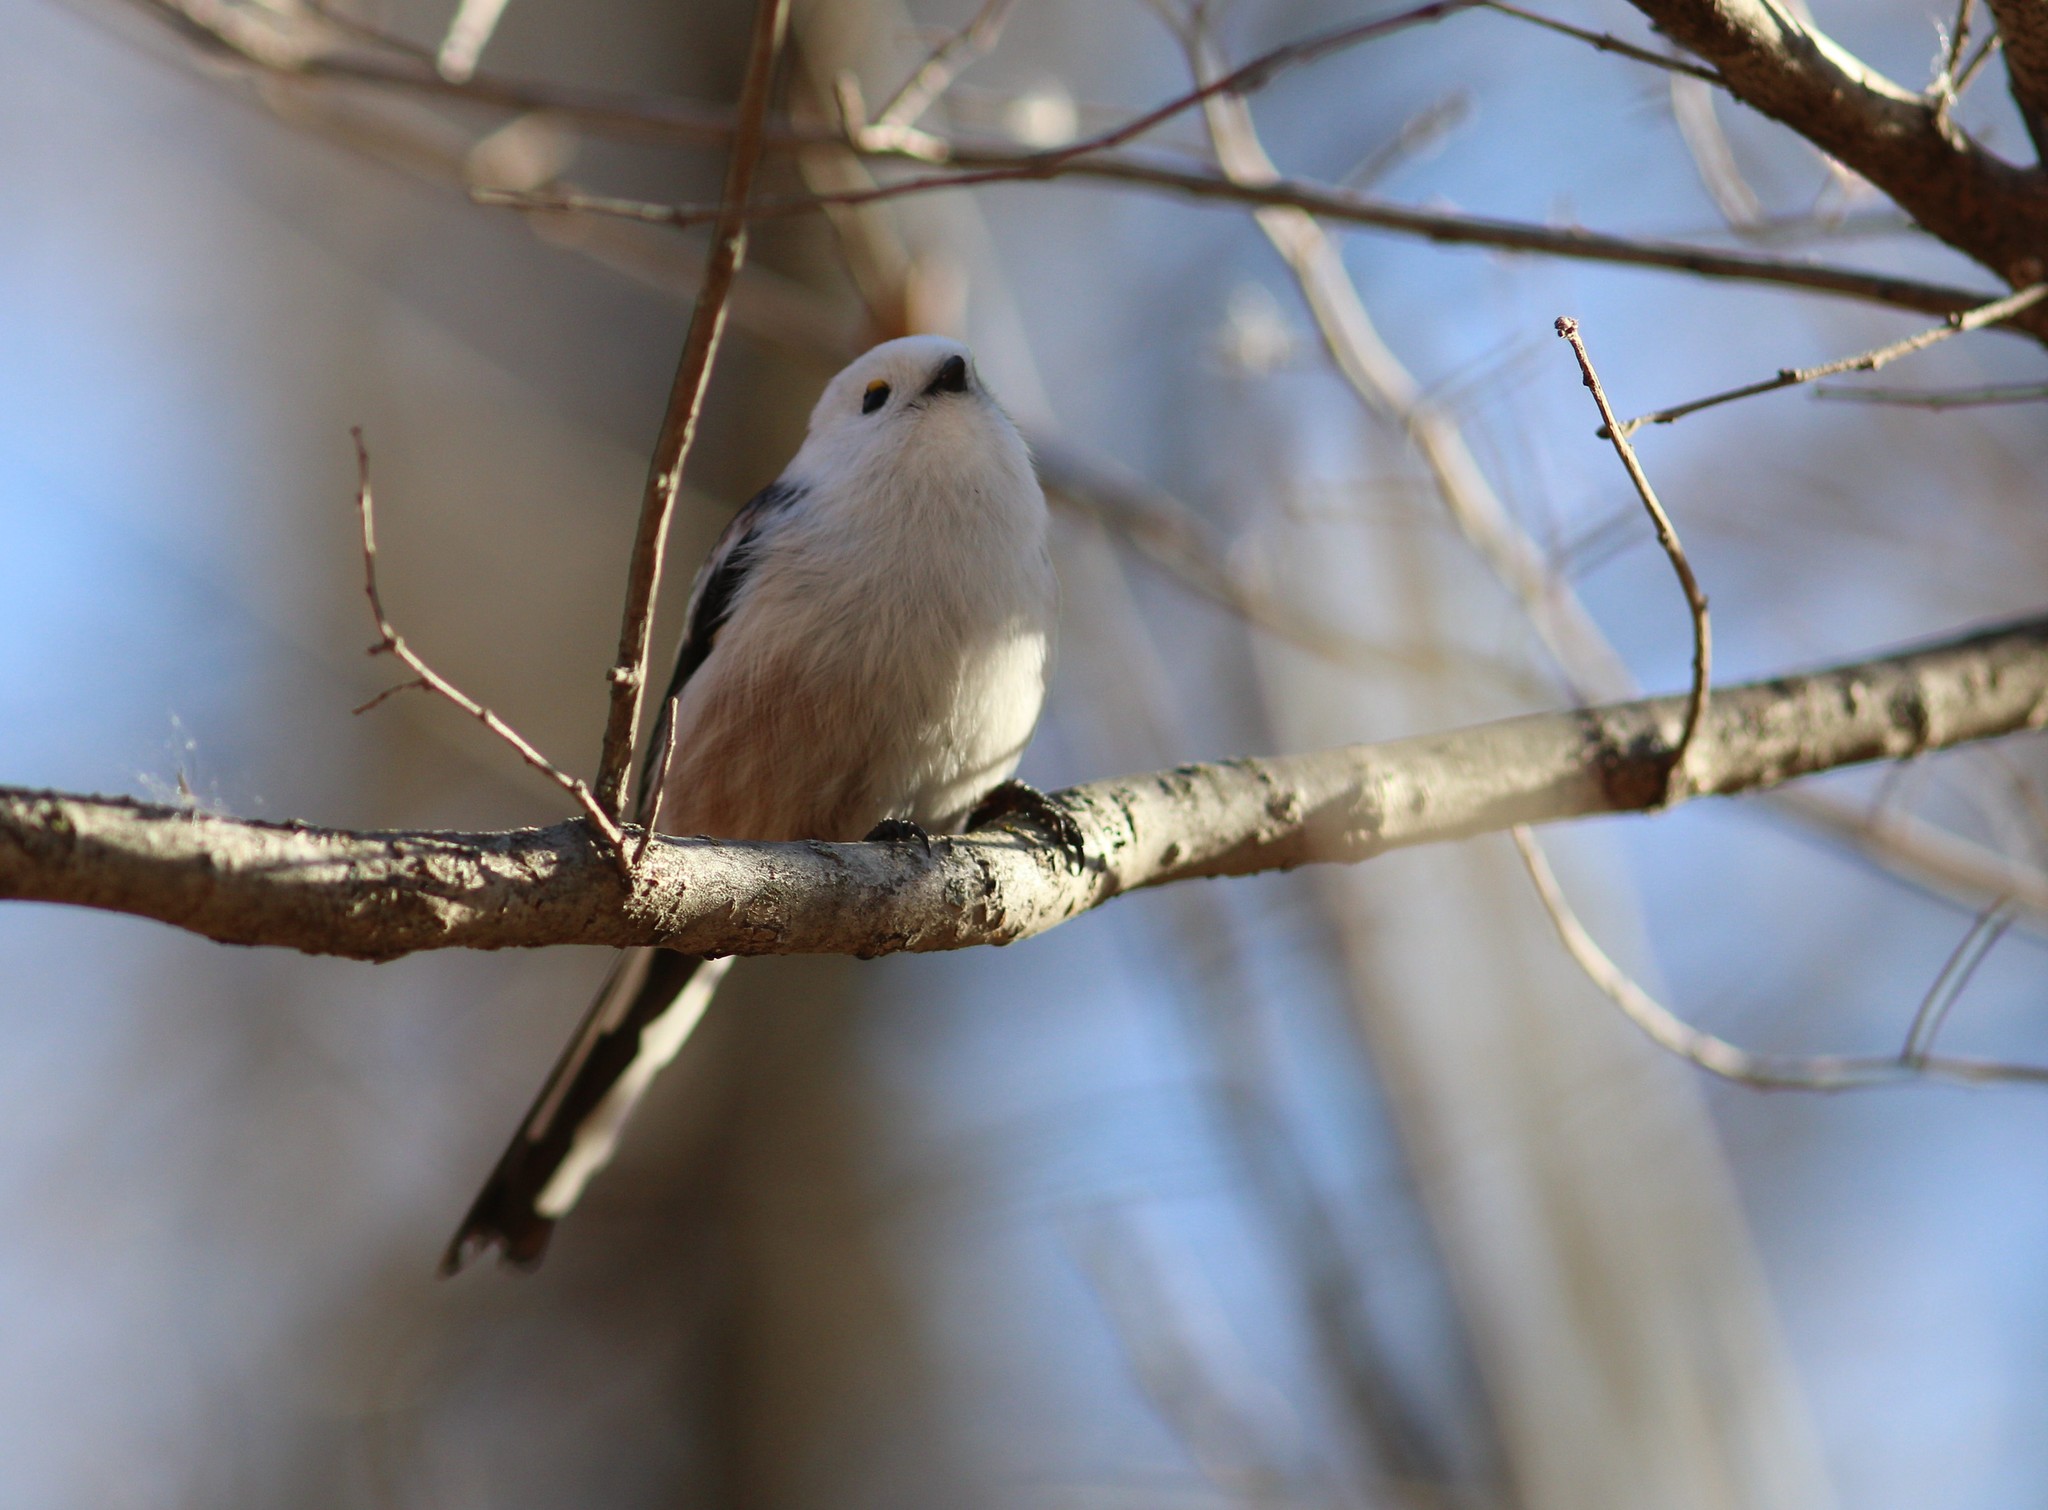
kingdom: Animalia
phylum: Chordata
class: Aves
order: Passeriformes
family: Aegithalidae
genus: Aegithalos
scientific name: Aegithalos caudatus
